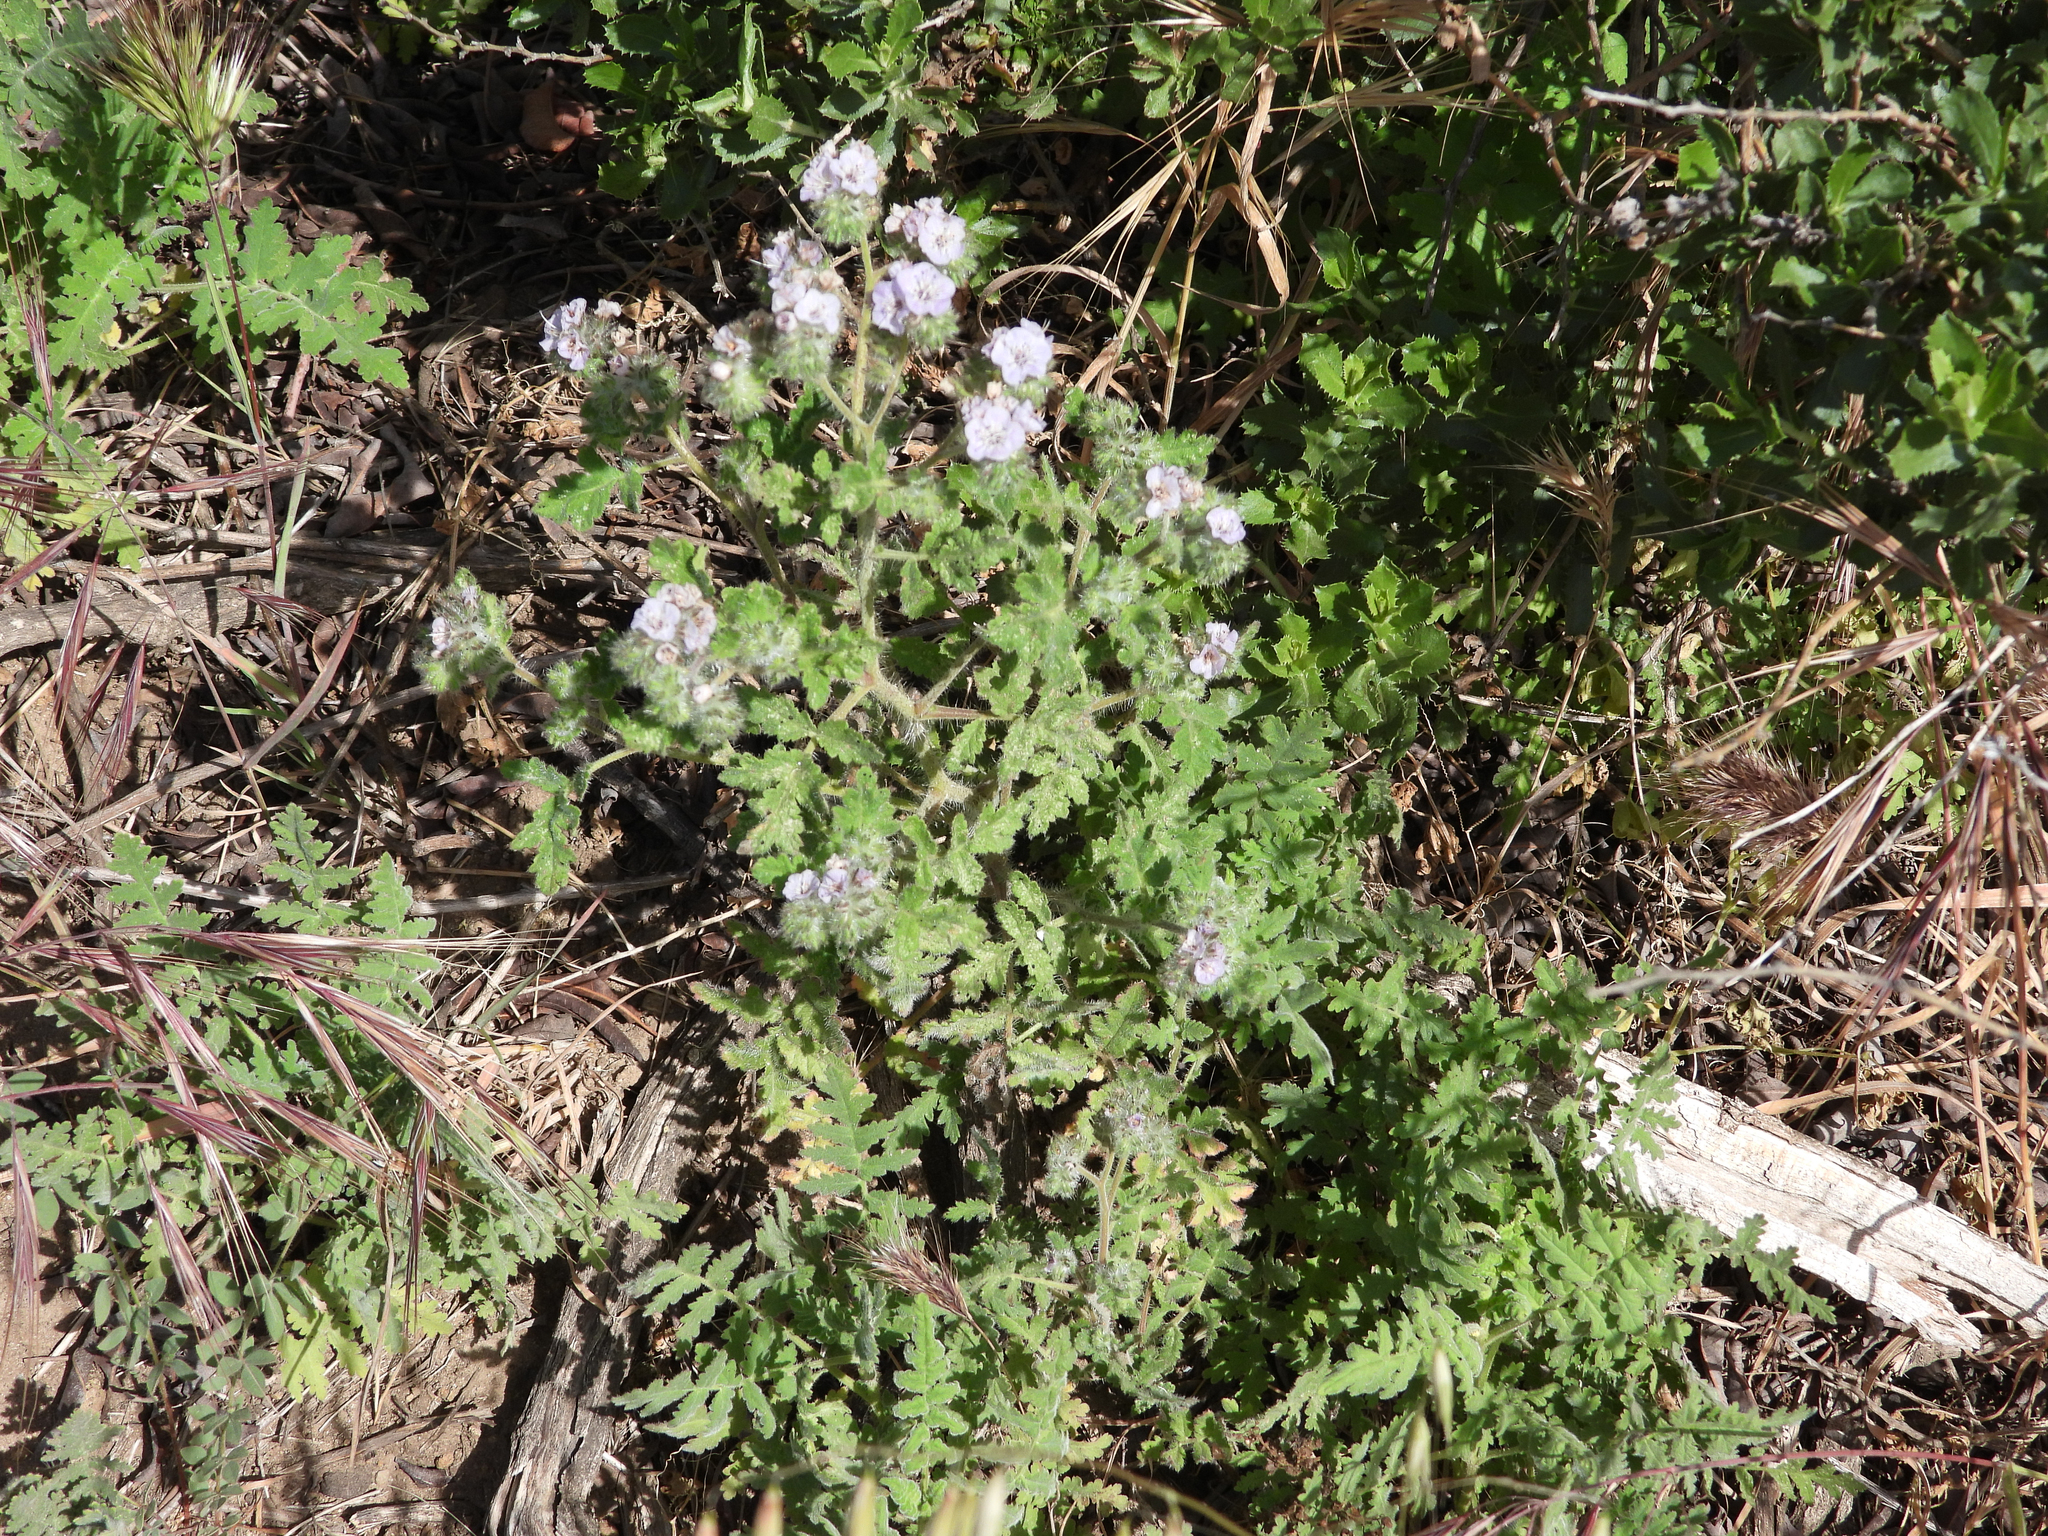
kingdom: Plantae
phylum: Tracheophyta
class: Magnoliopsida
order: Boraginales
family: Hydrophyllaceae
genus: Phacelia
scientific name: Phacelia cicutaria
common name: Caterpillar phacelia
